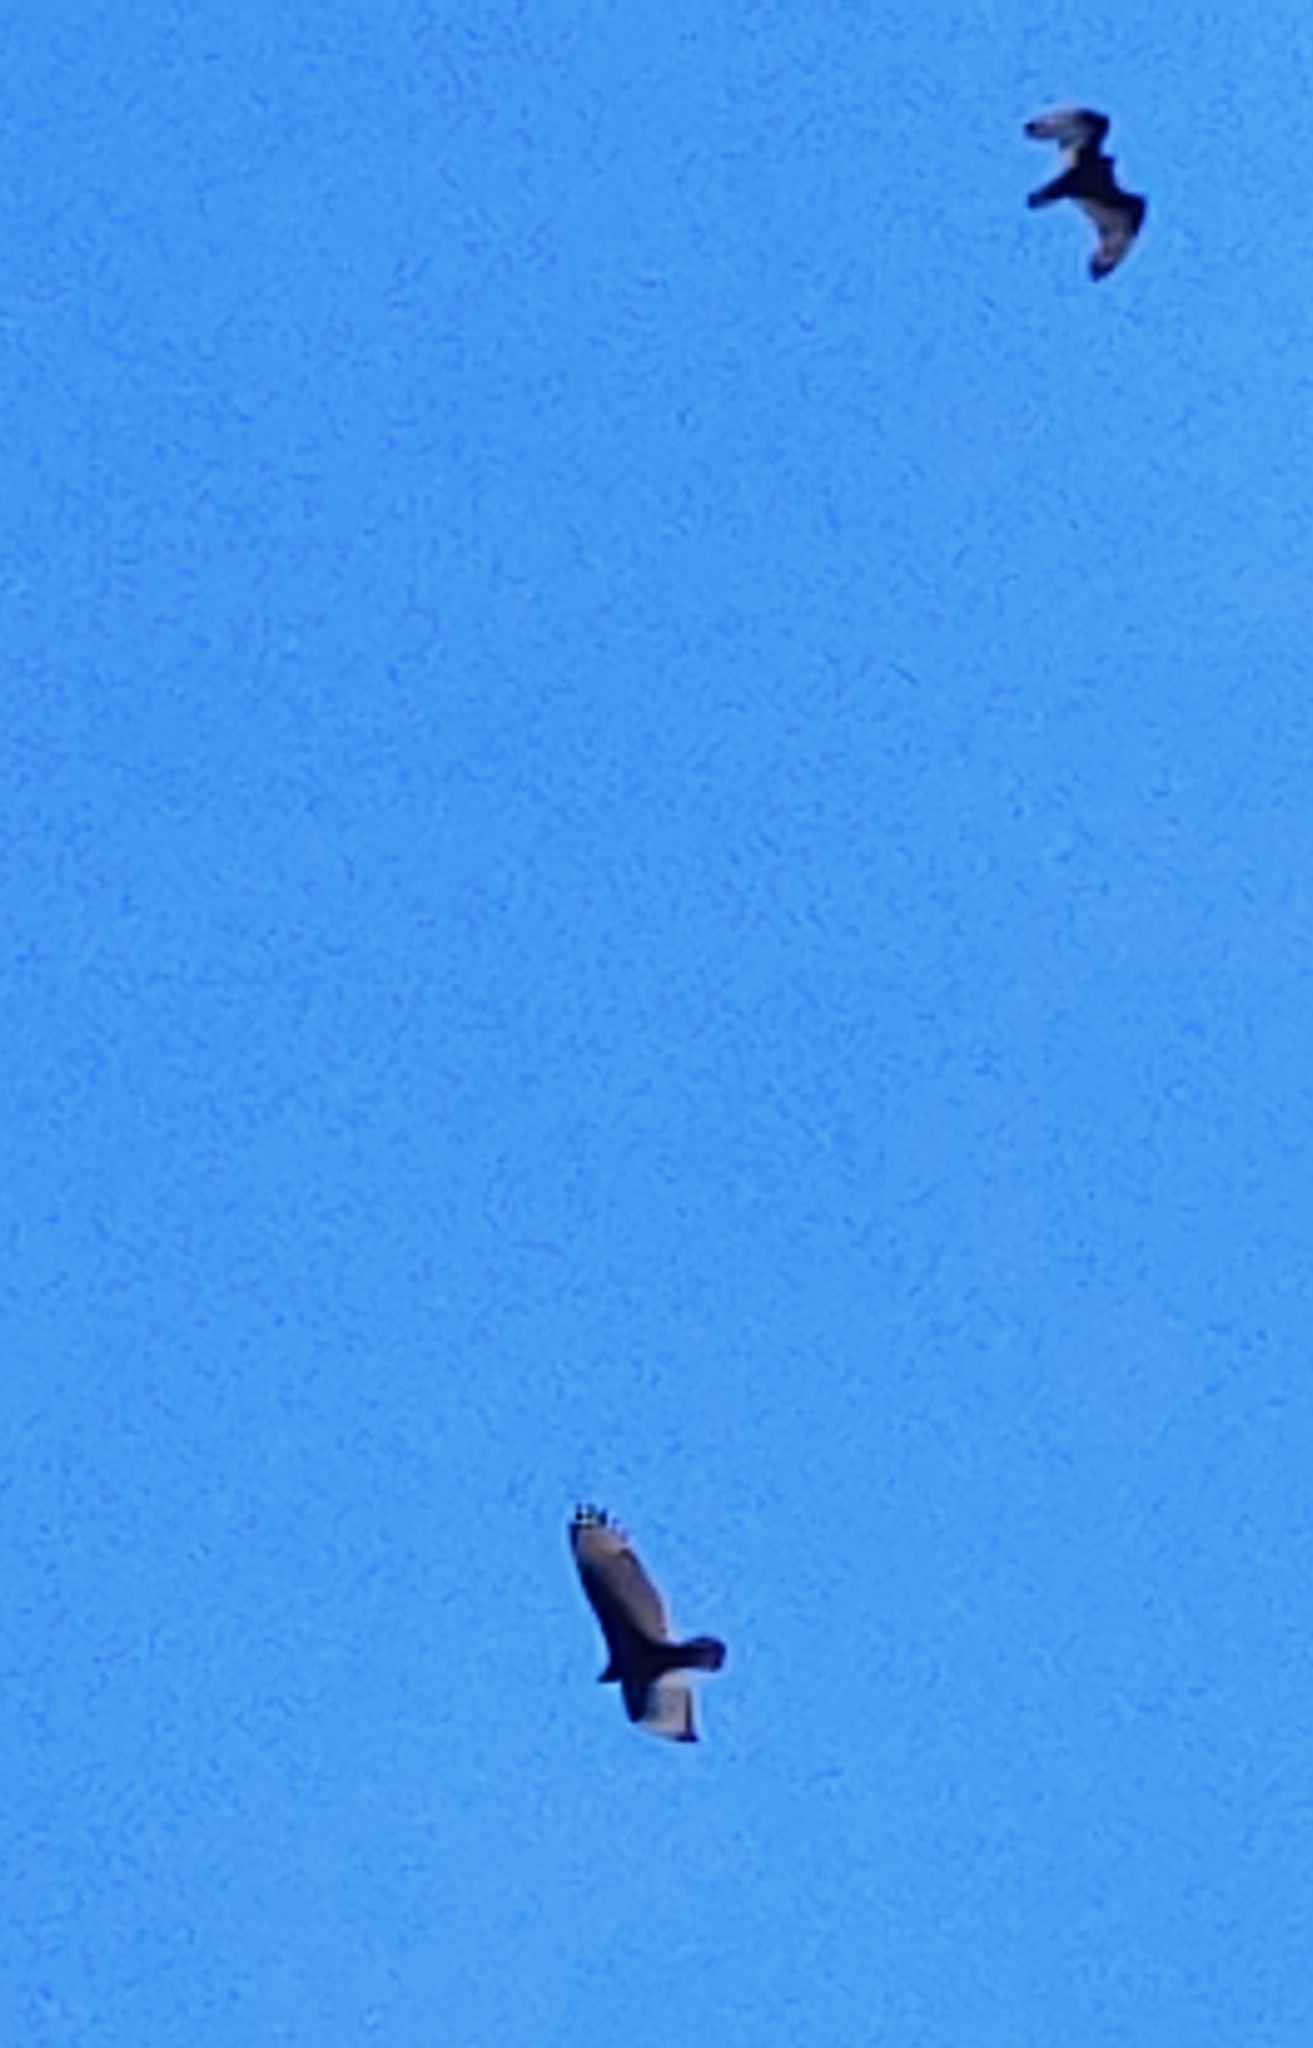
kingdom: Animalia
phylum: Chordata
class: Aves
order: Accipitriformes
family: Cathartidae
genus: Cathartes
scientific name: Cathartes aura
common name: Turkey vulture
